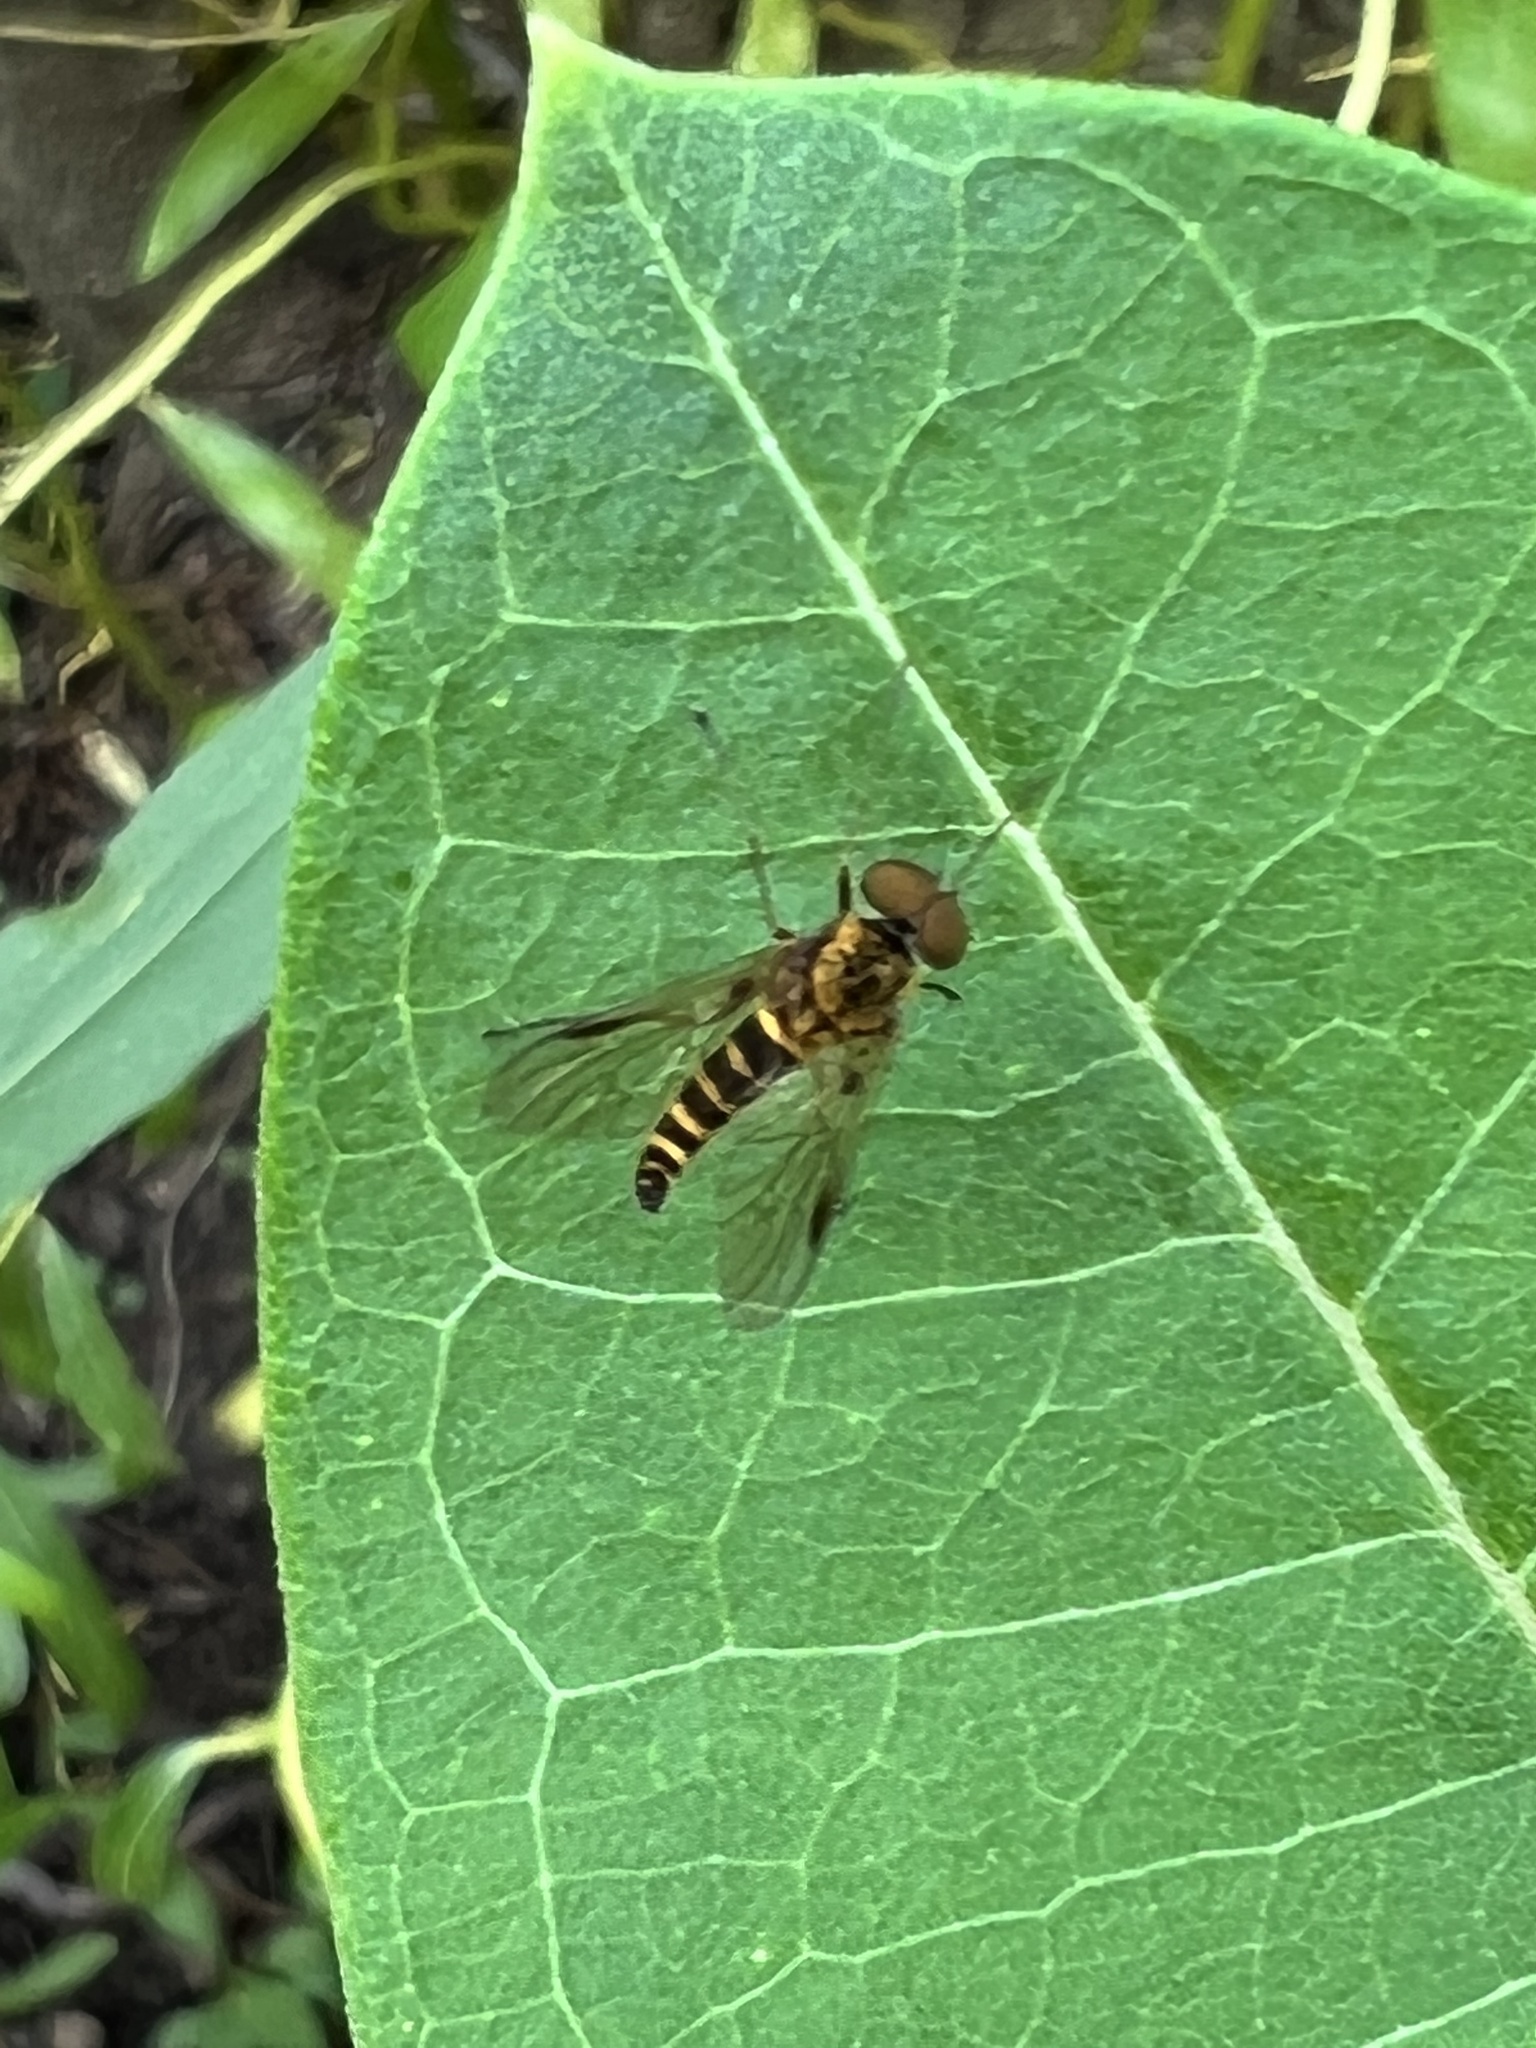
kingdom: Animalia
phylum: Arthropoda
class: Insecta
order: Diptera
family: Rhagionidae
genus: Chrysopilus
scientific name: Chrysopilus fasciatus
